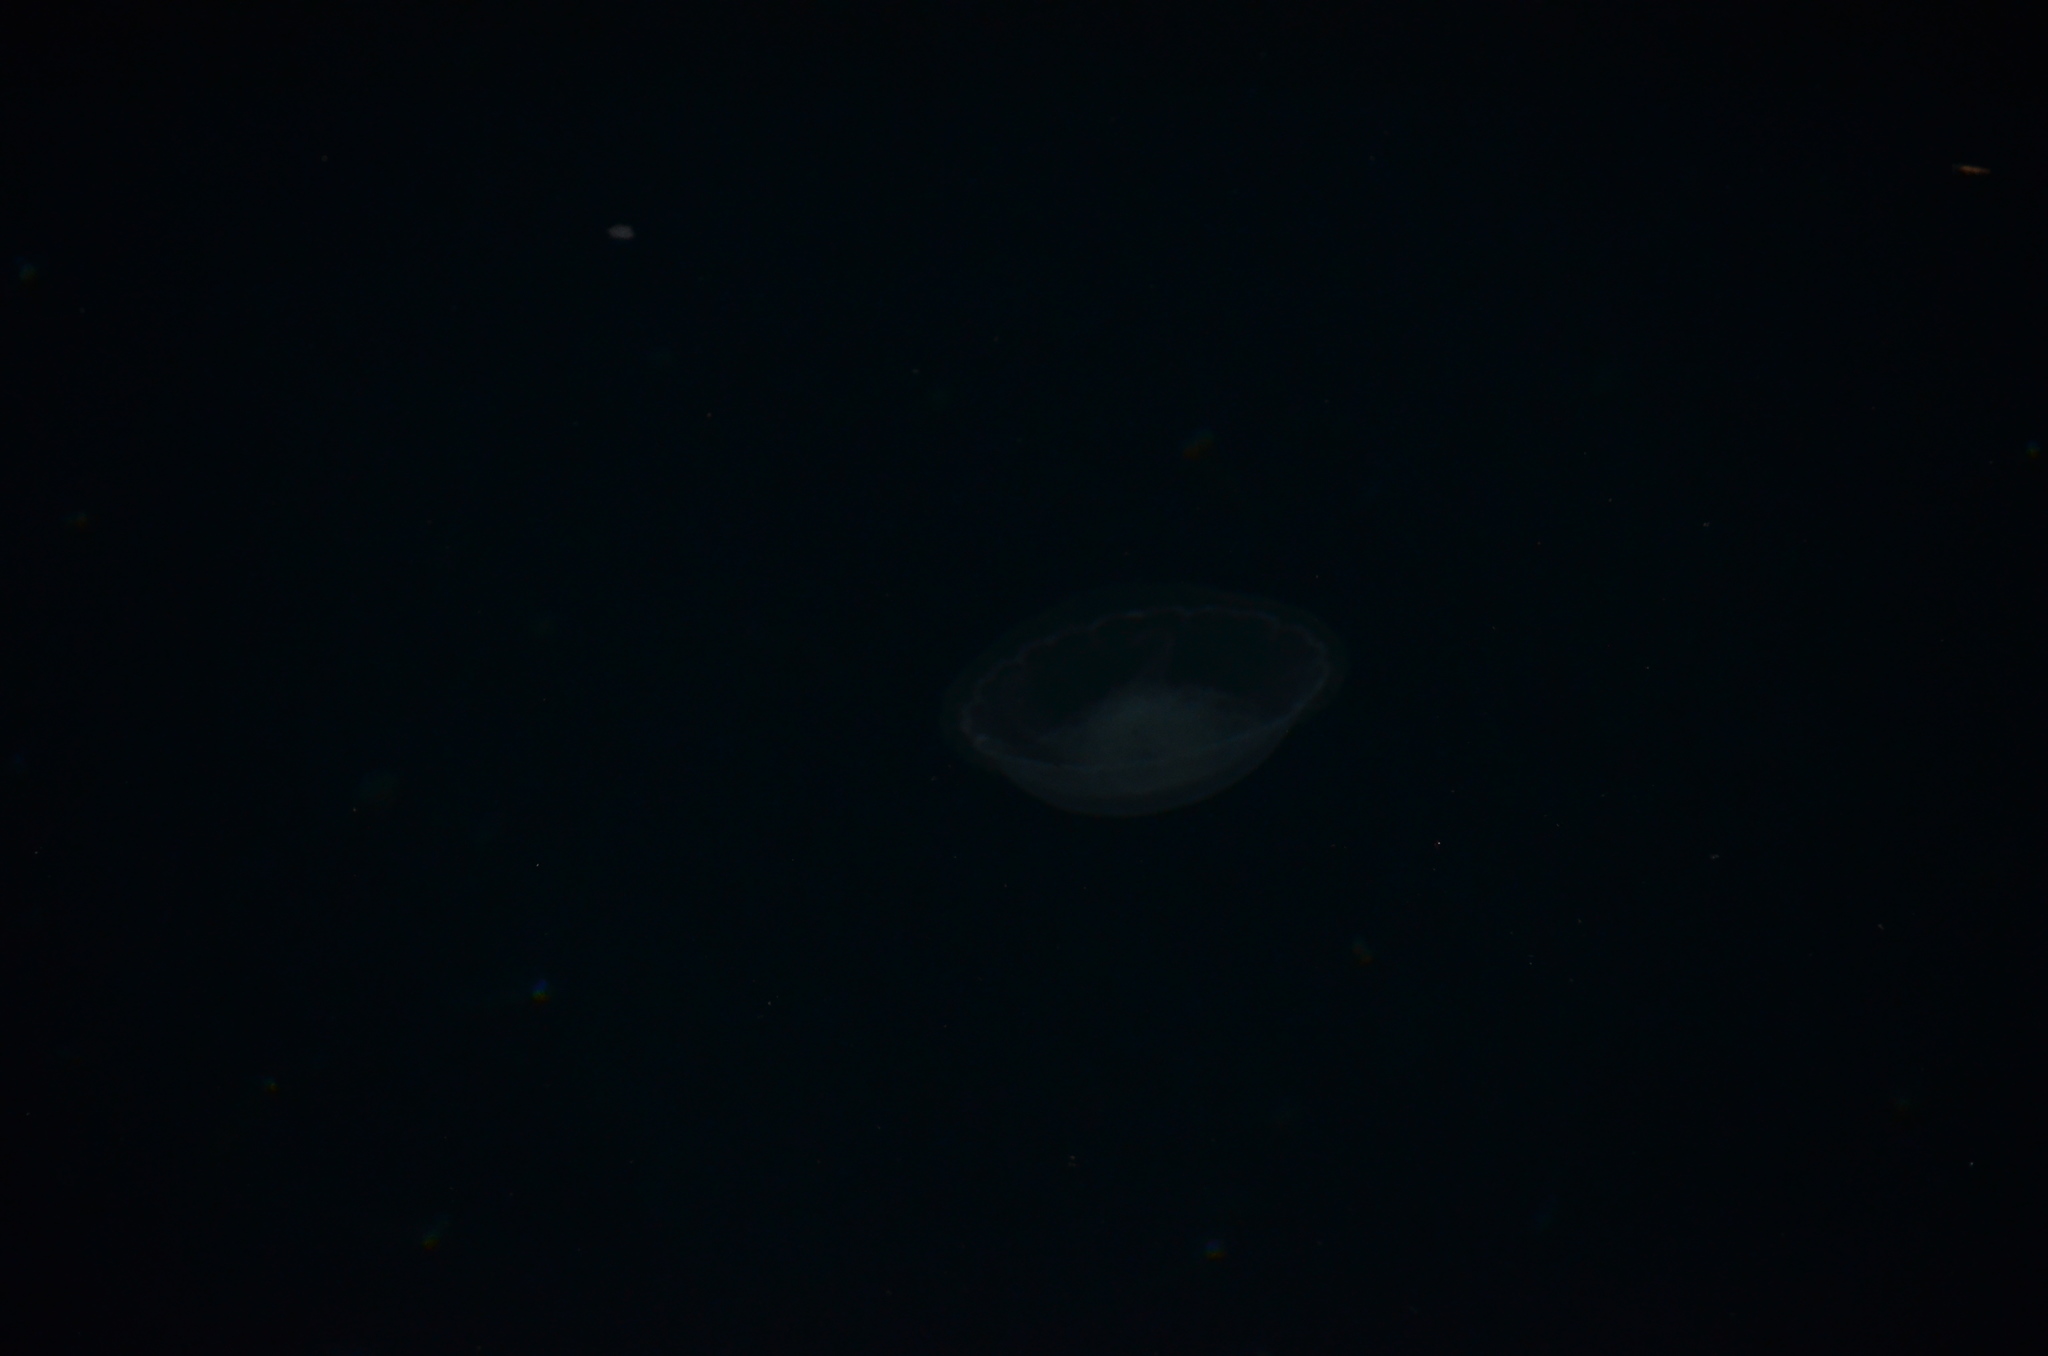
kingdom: Animalia
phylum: Cnidaria
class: Scyphozoa
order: Semaeostomeae
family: Ulmaridae
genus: Aurelia
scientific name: Aurelia labiata
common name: Pacific moon jelly
